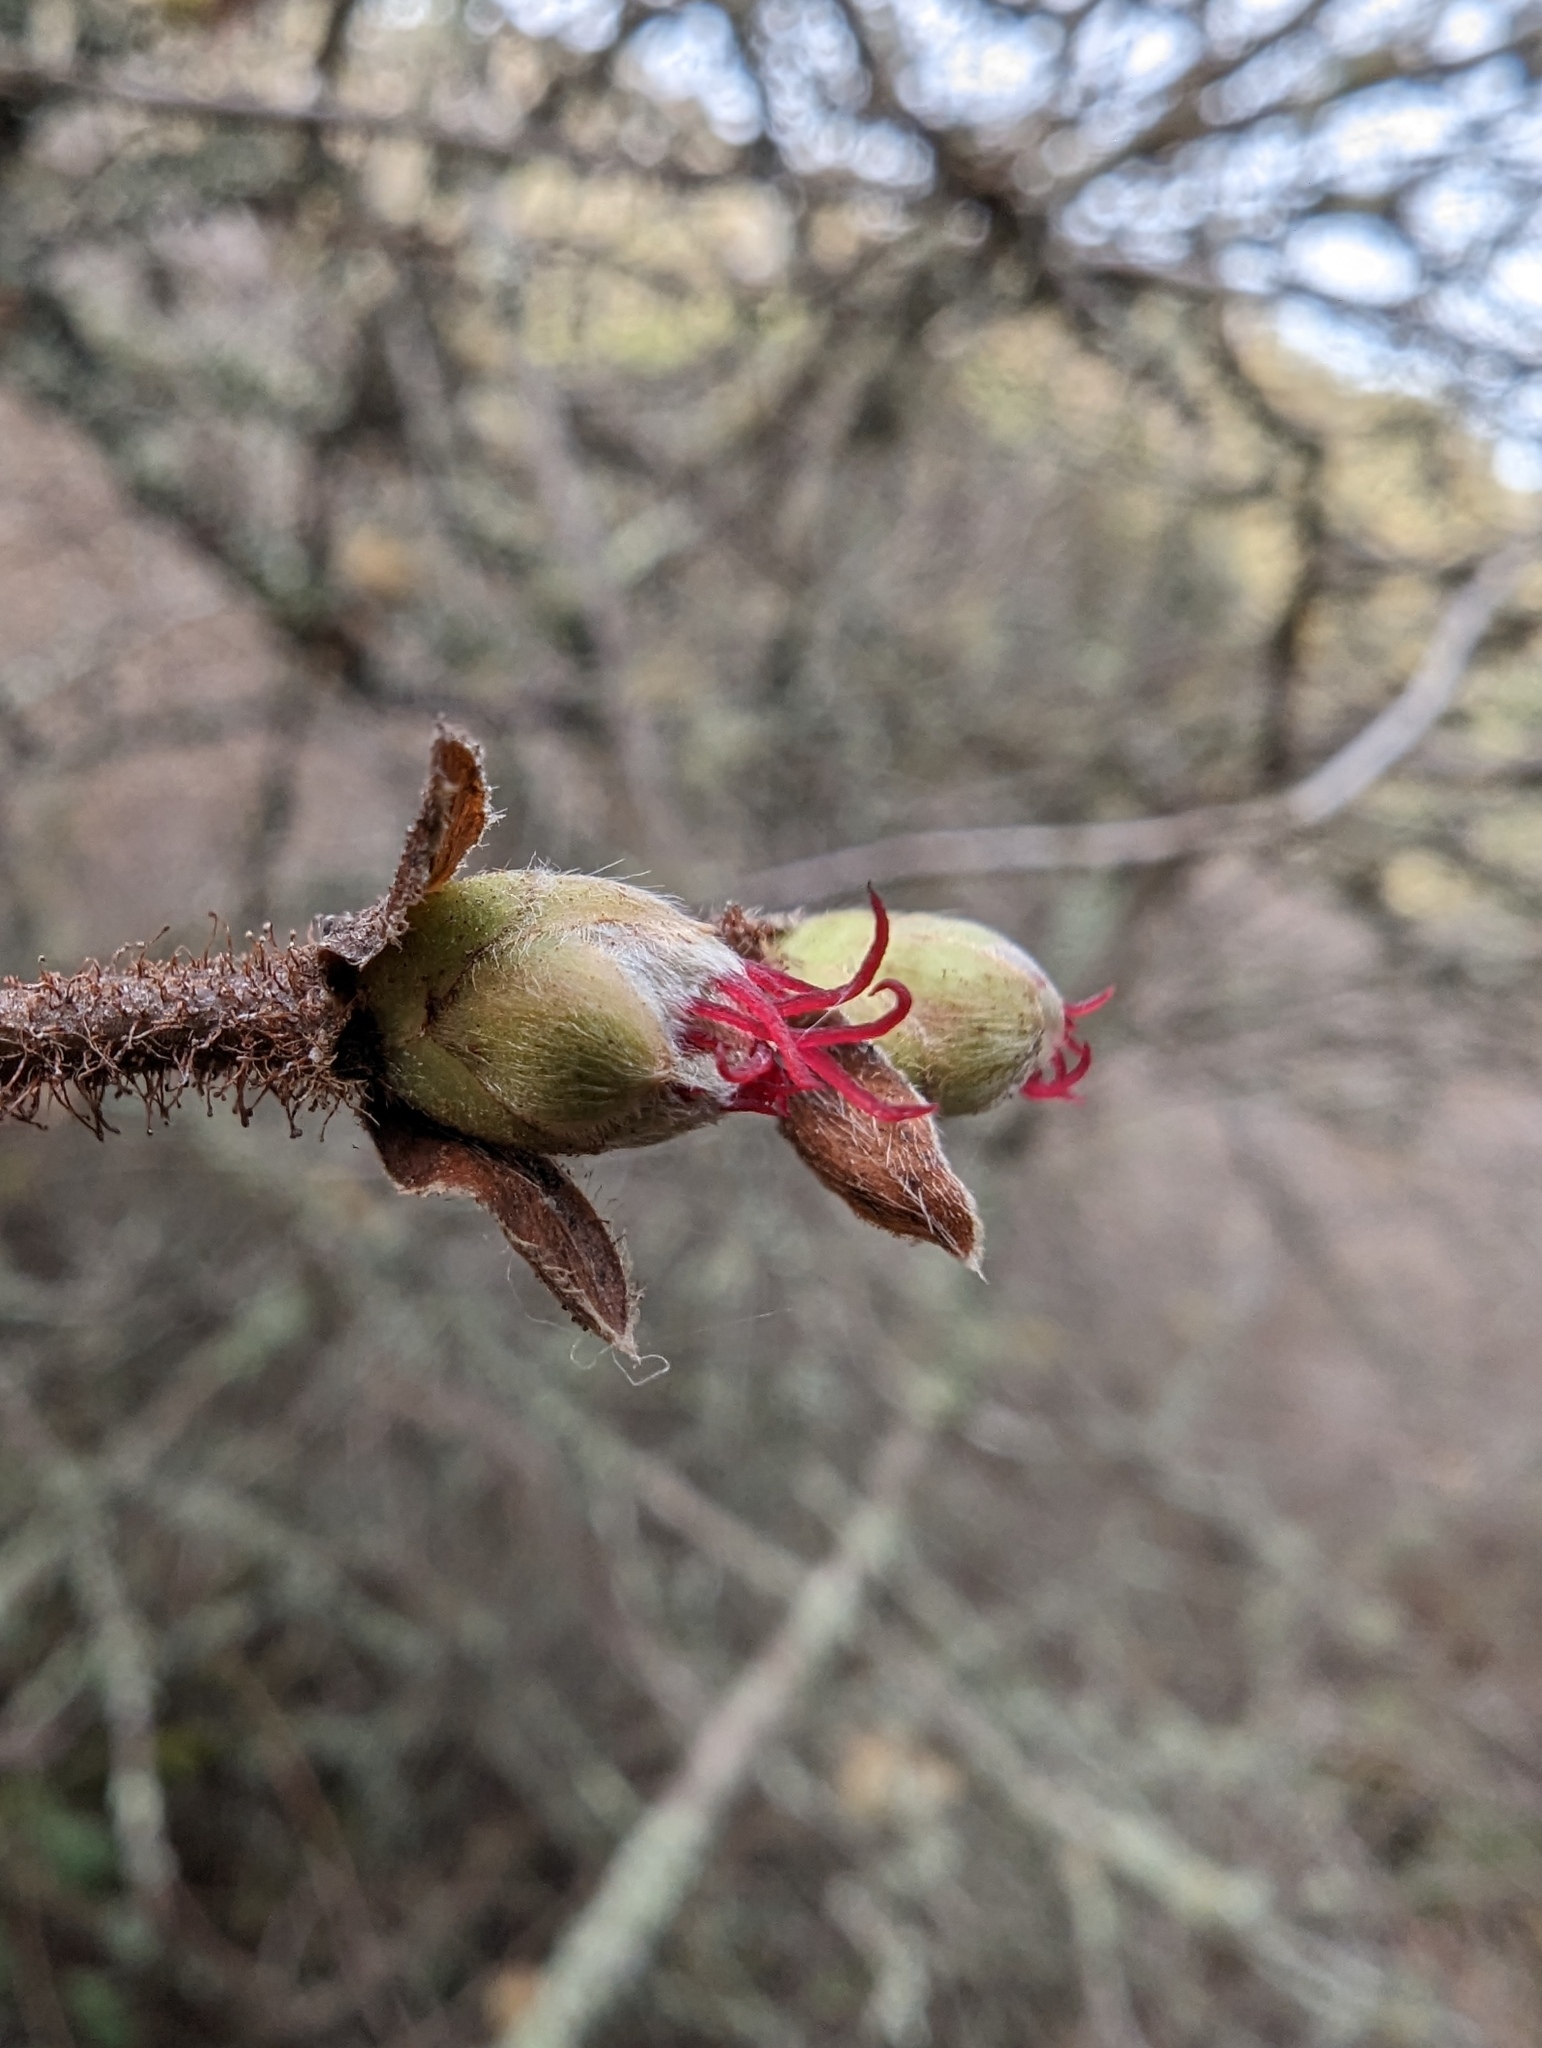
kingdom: Plantae
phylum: Tracheophyta
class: Magnoliopsida
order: Fagales
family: Betulaceae
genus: Corylus
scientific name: Corylus cornuta
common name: Beaked hazel
